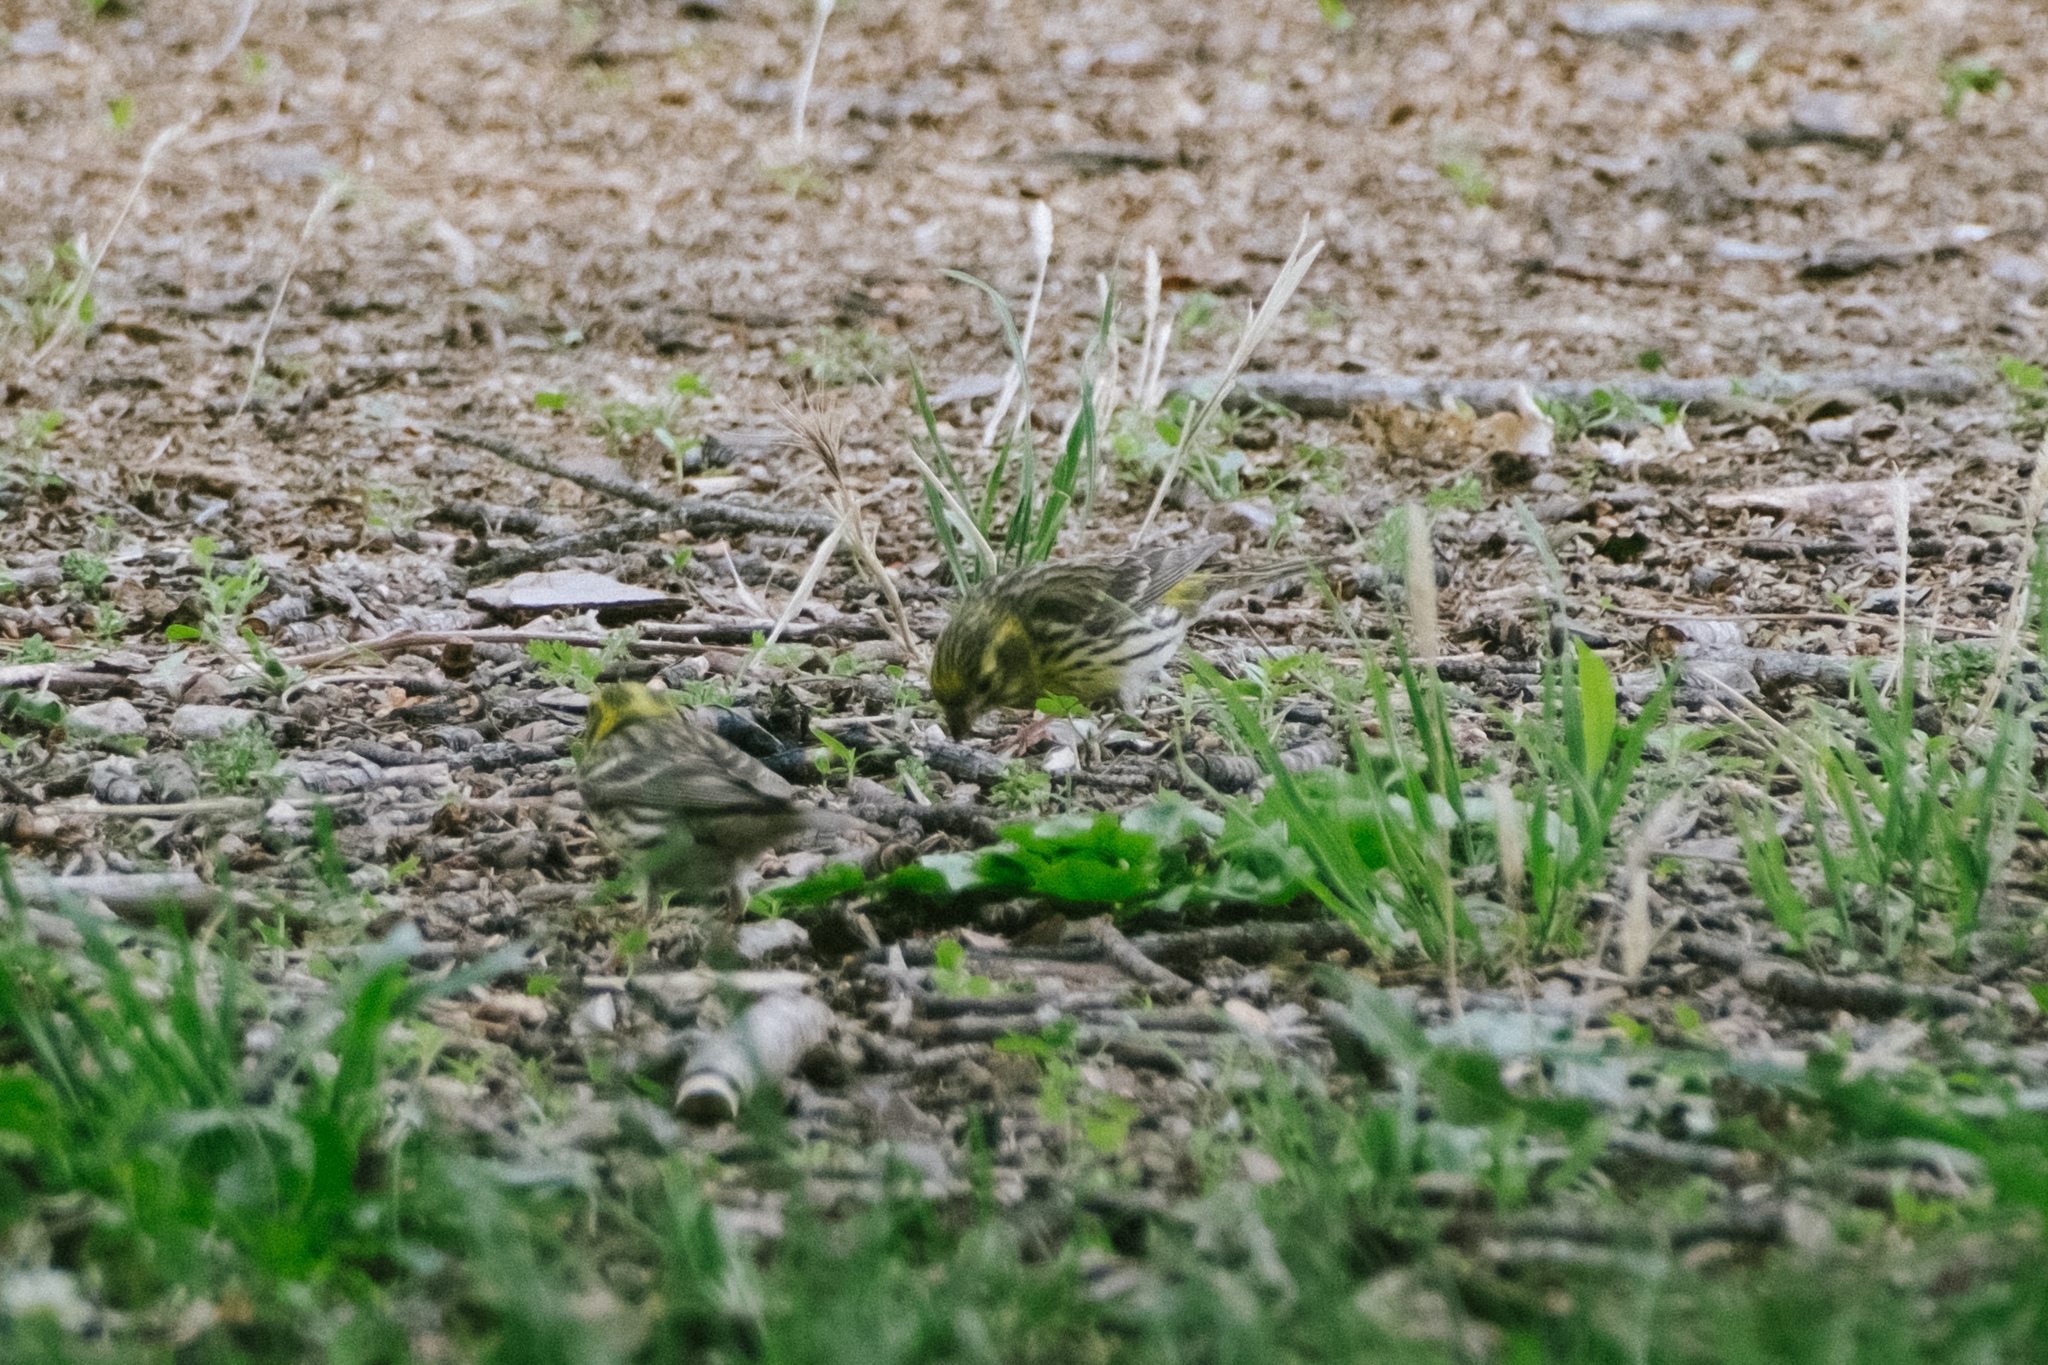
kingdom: Animalia
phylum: Chordata
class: Aves
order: Passeriformes
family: Fringillidae
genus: Serinus
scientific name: Serinus serinus
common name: European serin
